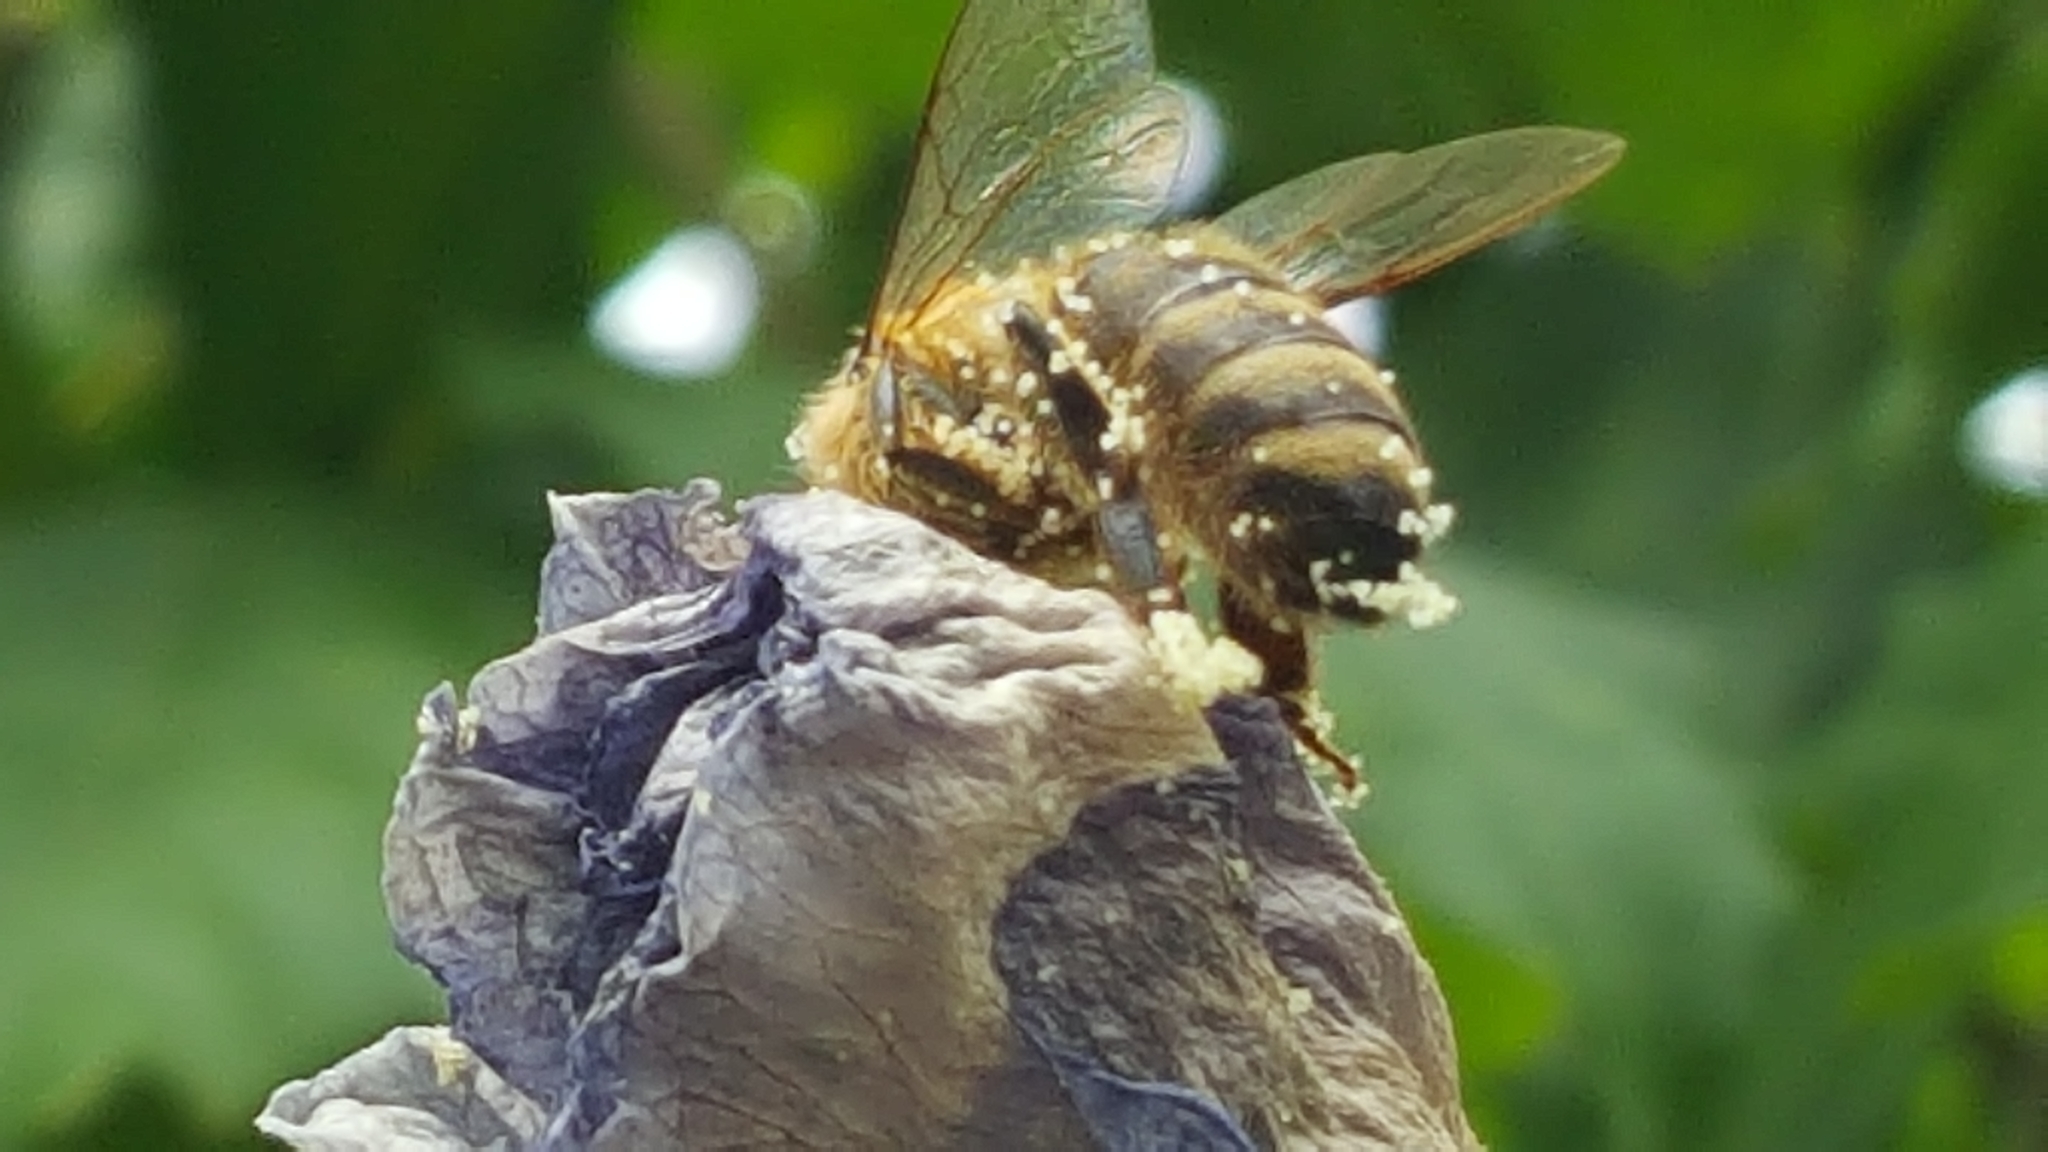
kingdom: Animalia
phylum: Arthropoda
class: Insecta
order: Hymenoptera
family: Apidae
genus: Apis
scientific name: Apis mellifera
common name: Honey bee
